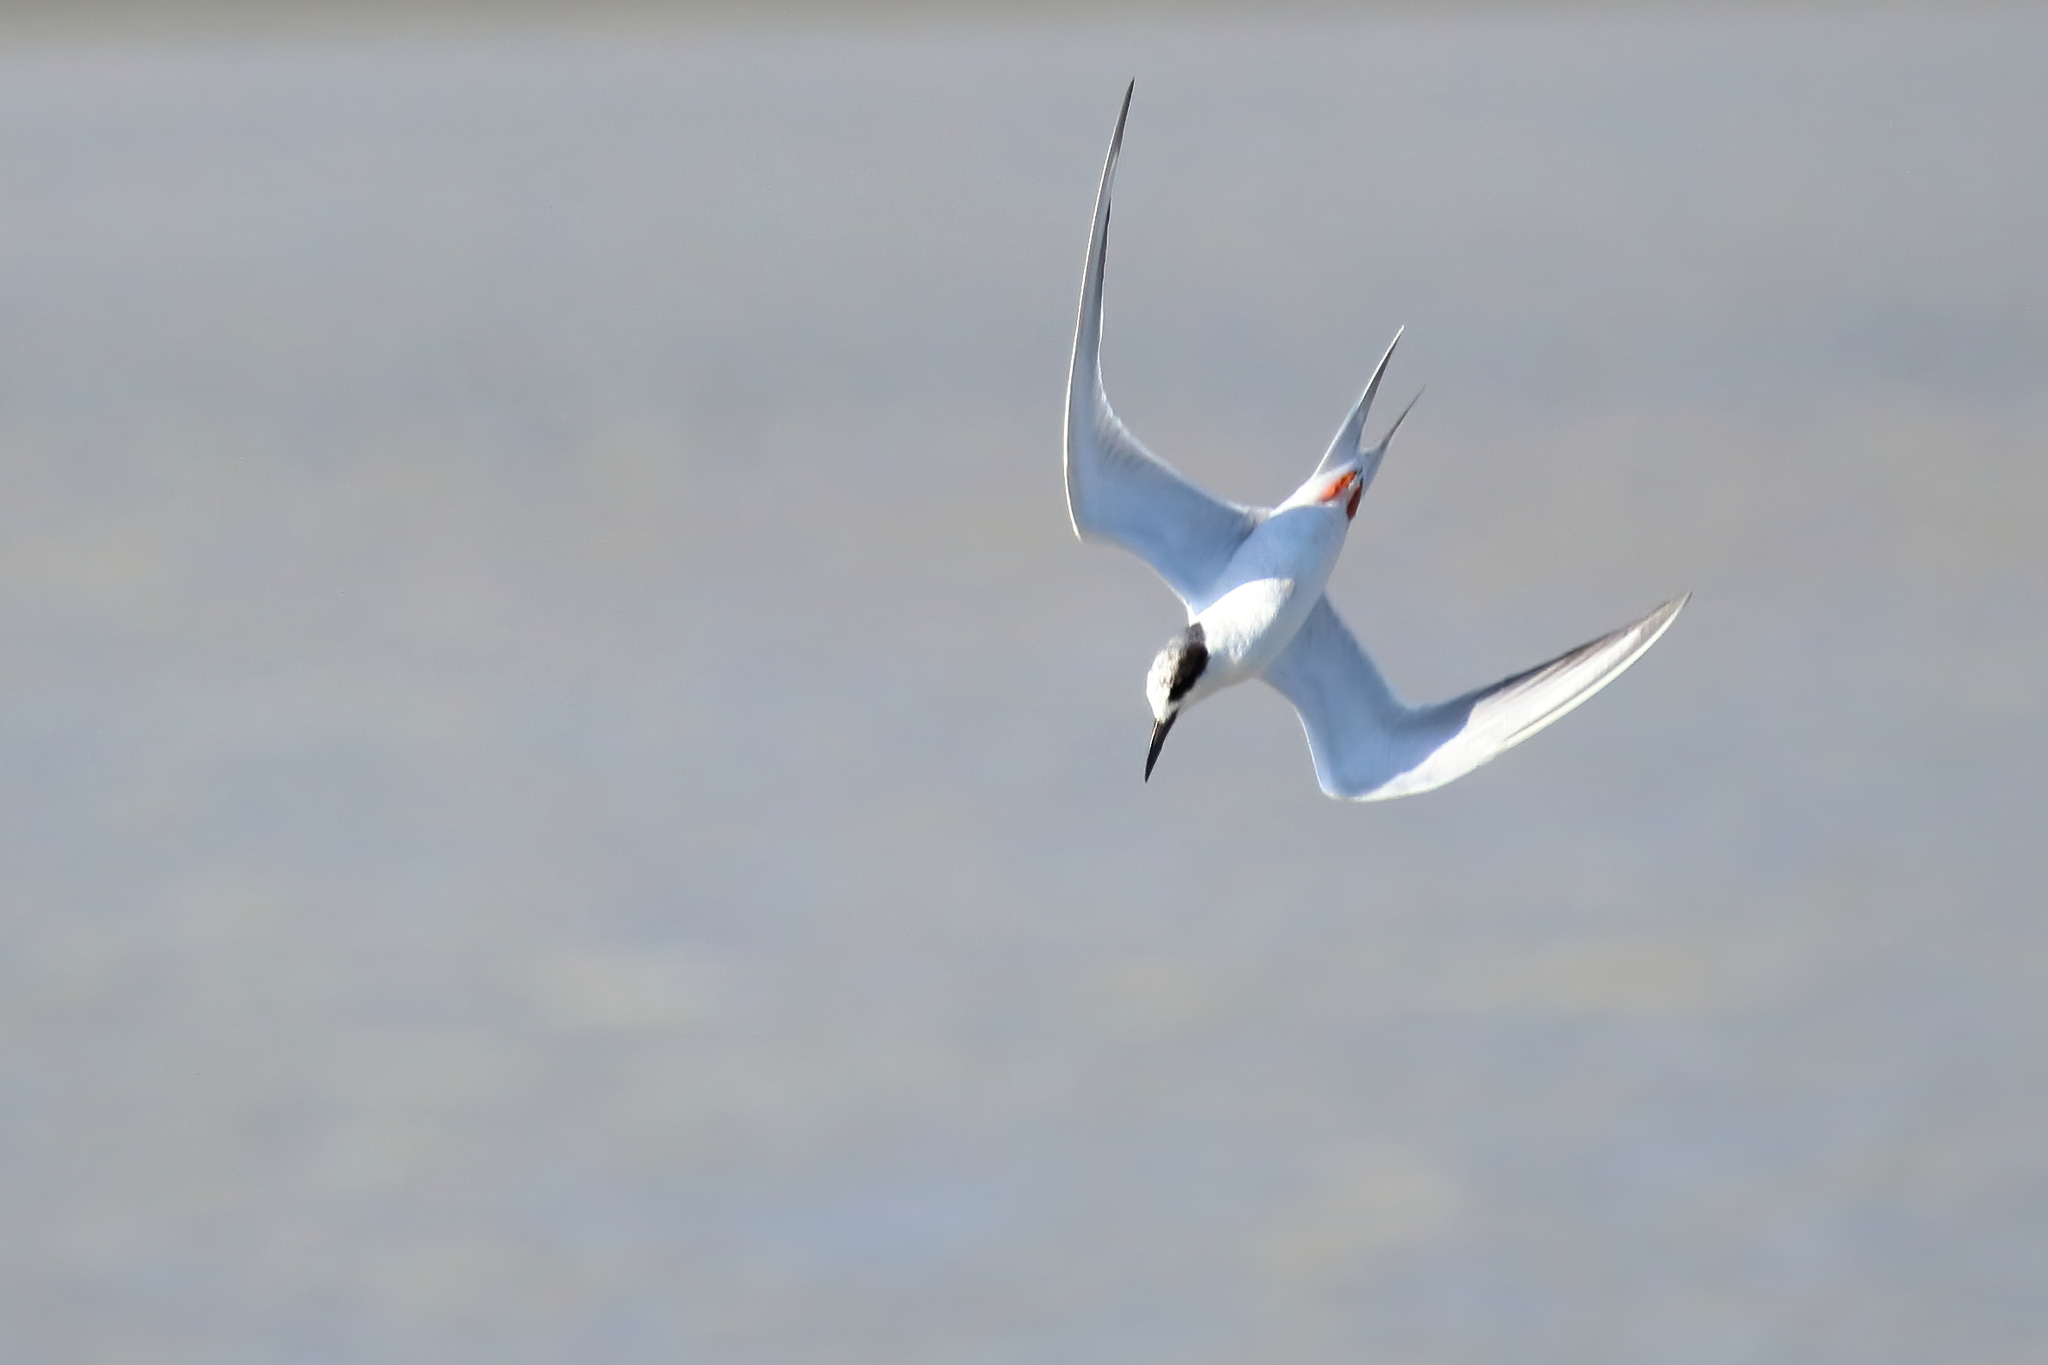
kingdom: Animalia
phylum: Chordata
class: Aves
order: Charadriiformes
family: Laridae
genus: Sterna
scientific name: Sterna forsteri
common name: Forster's tern
